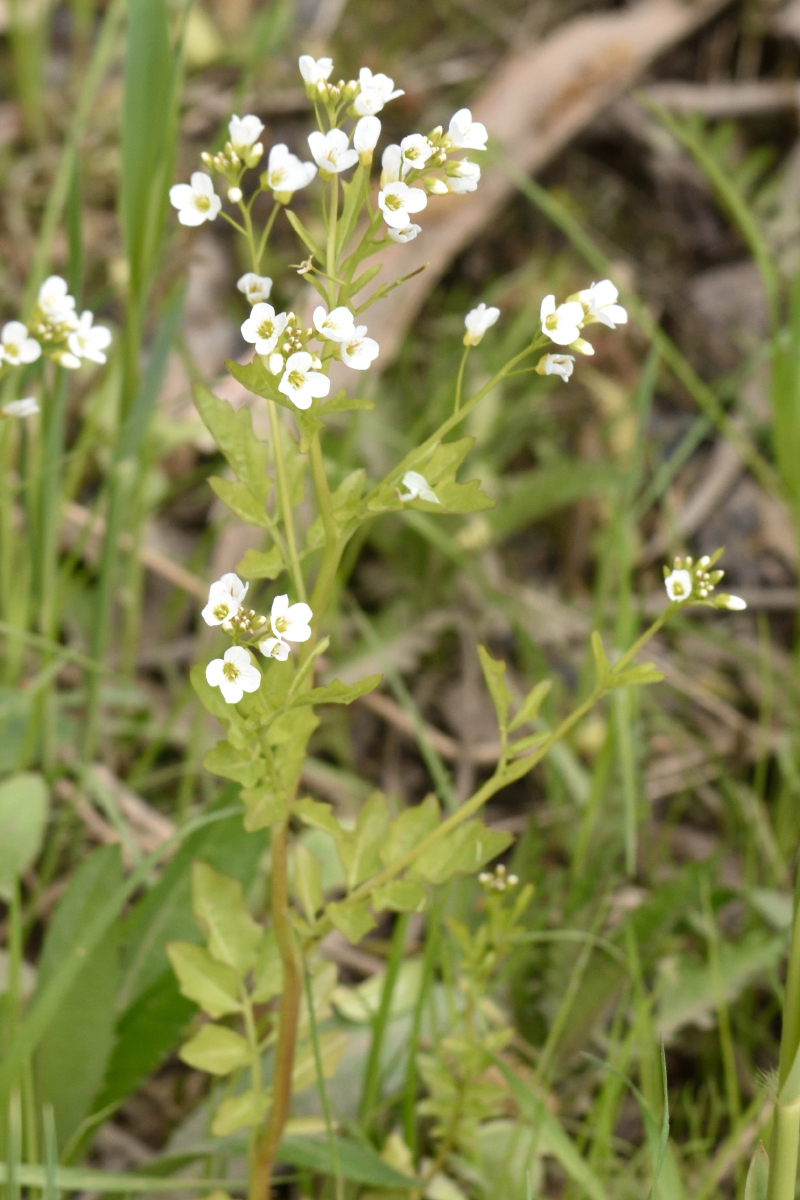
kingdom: Plantae
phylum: Tracheophyta
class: Magnoliopsida
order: Brassicales
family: Brassicaceae
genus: Cardamine
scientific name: Cardamine amara
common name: Large bitter-cress
